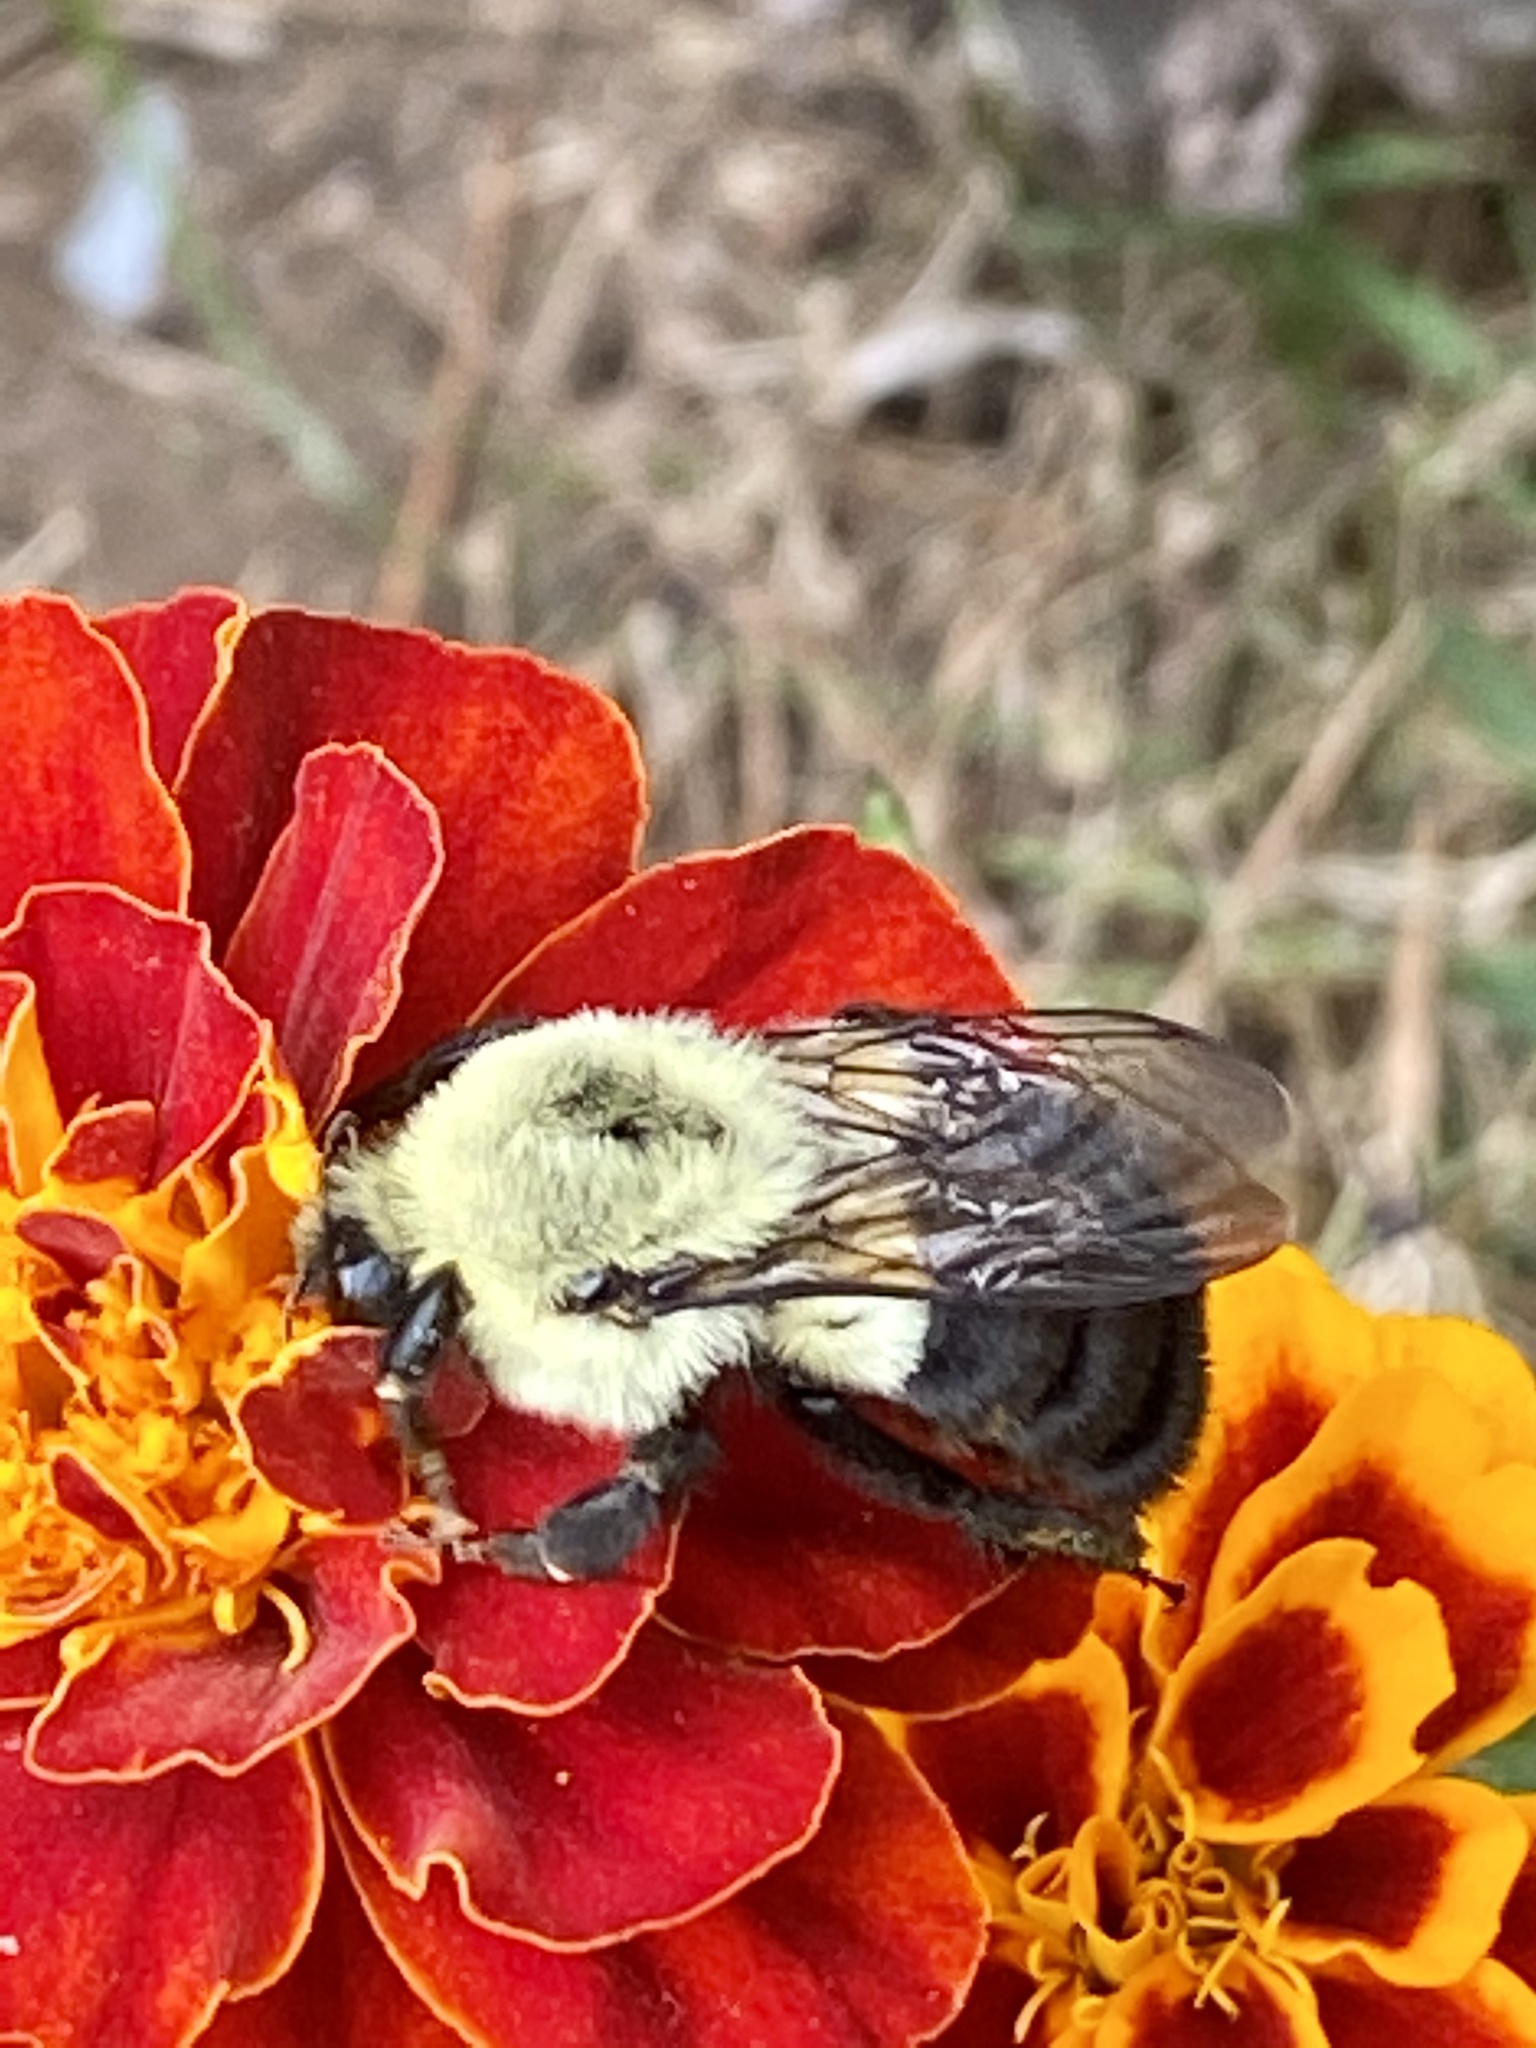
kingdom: Animalia
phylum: Arthropoda
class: Insecta
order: Hymenoptera
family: Apidae
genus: Bombus
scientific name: Bombus impatiens
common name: Common eastern bumble bee
